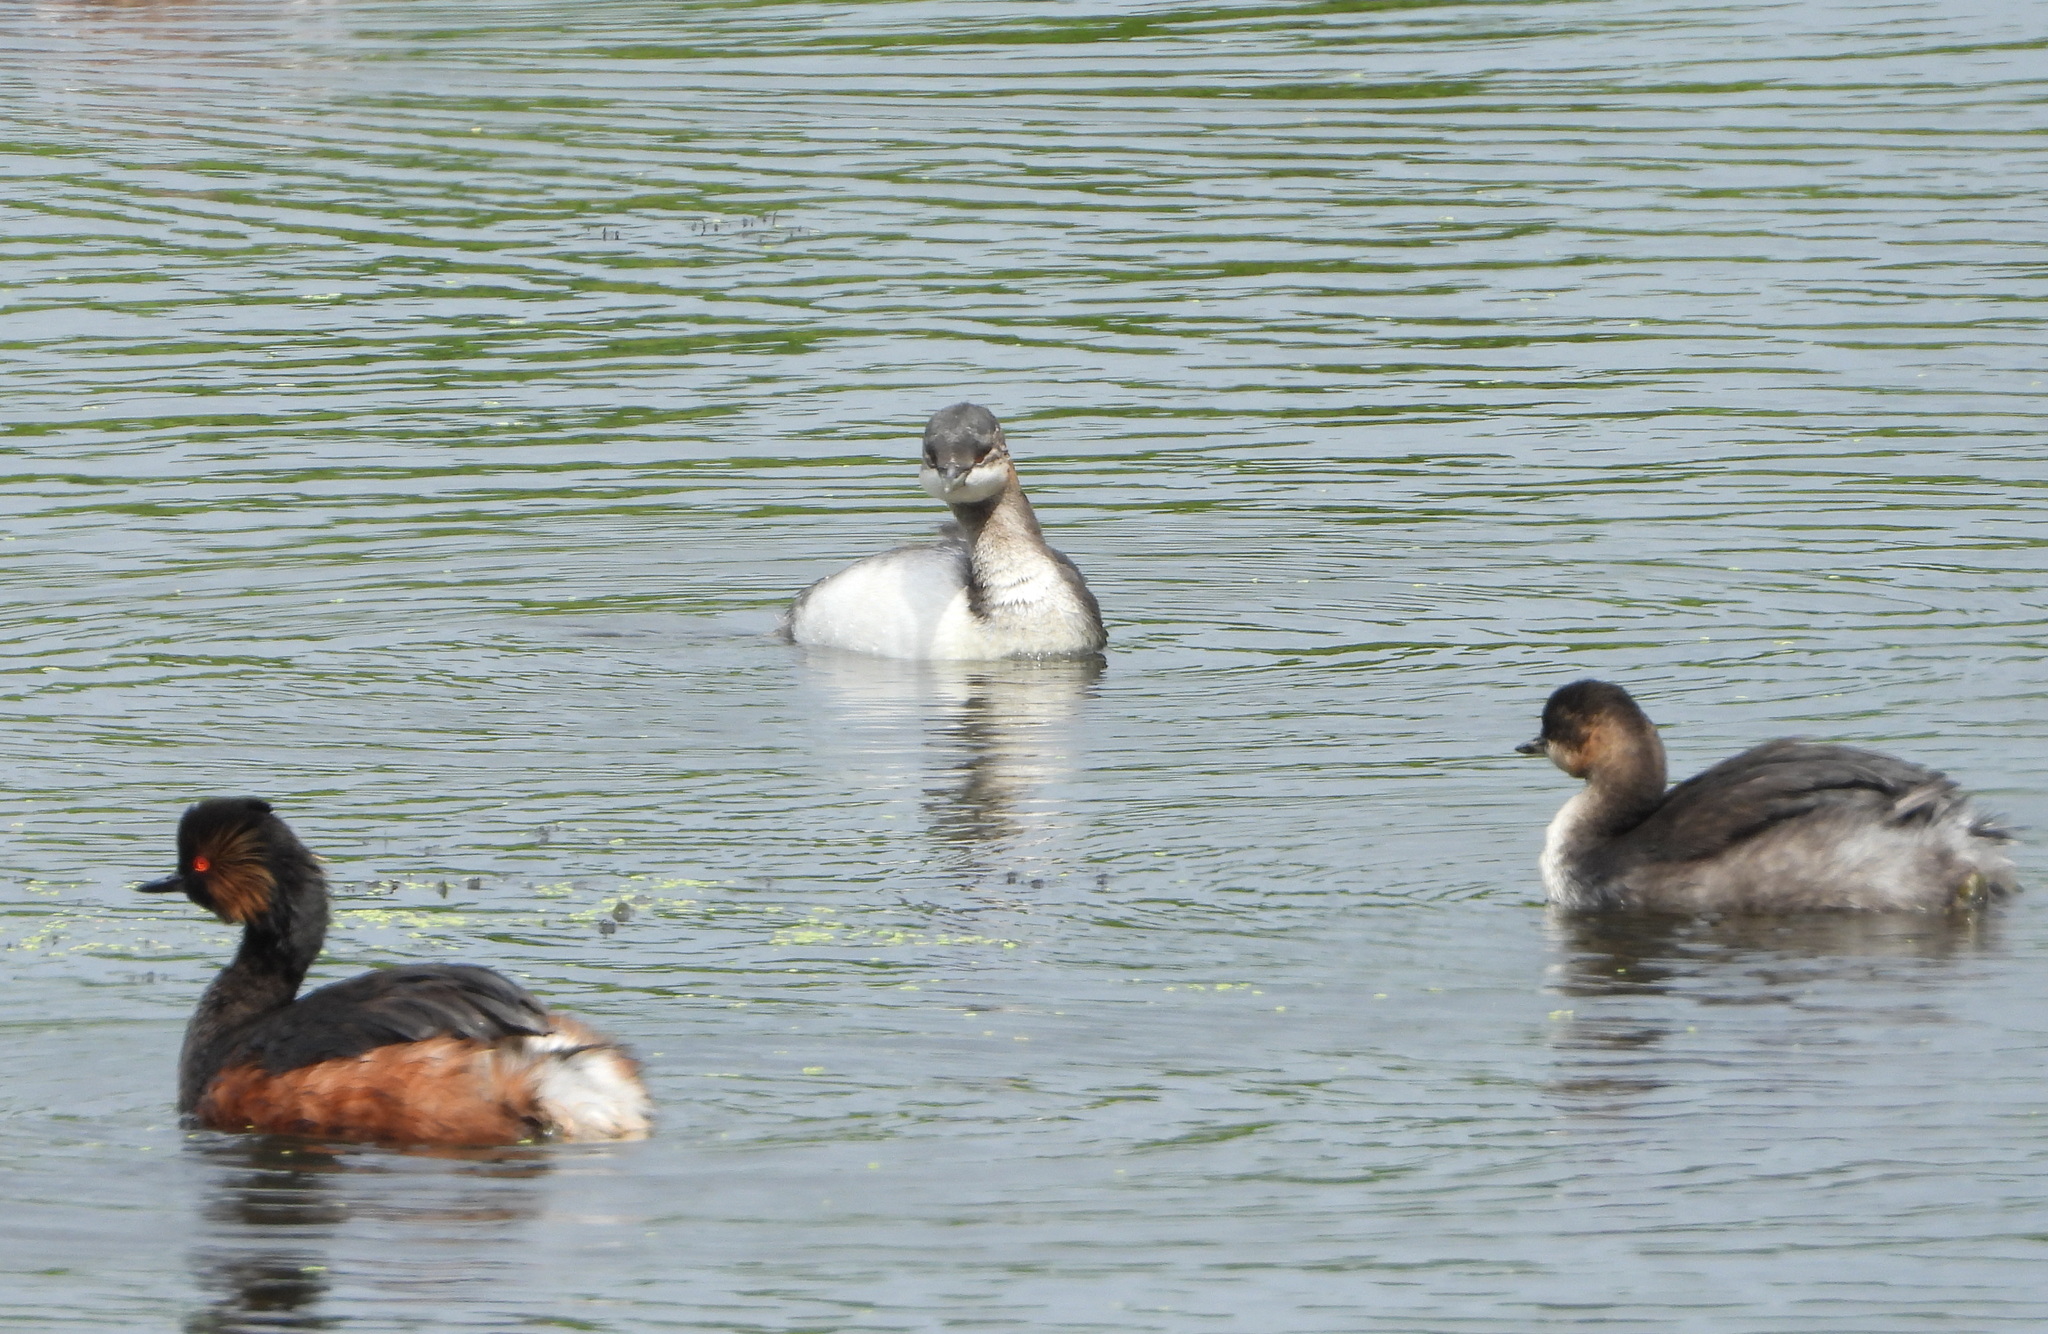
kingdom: Animalia
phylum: Chordata
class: Aves
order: Podicipediformes
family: Podicipedidae
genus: Podiceps
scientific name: Podiceps nigricollis
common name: Black-necked grebe
